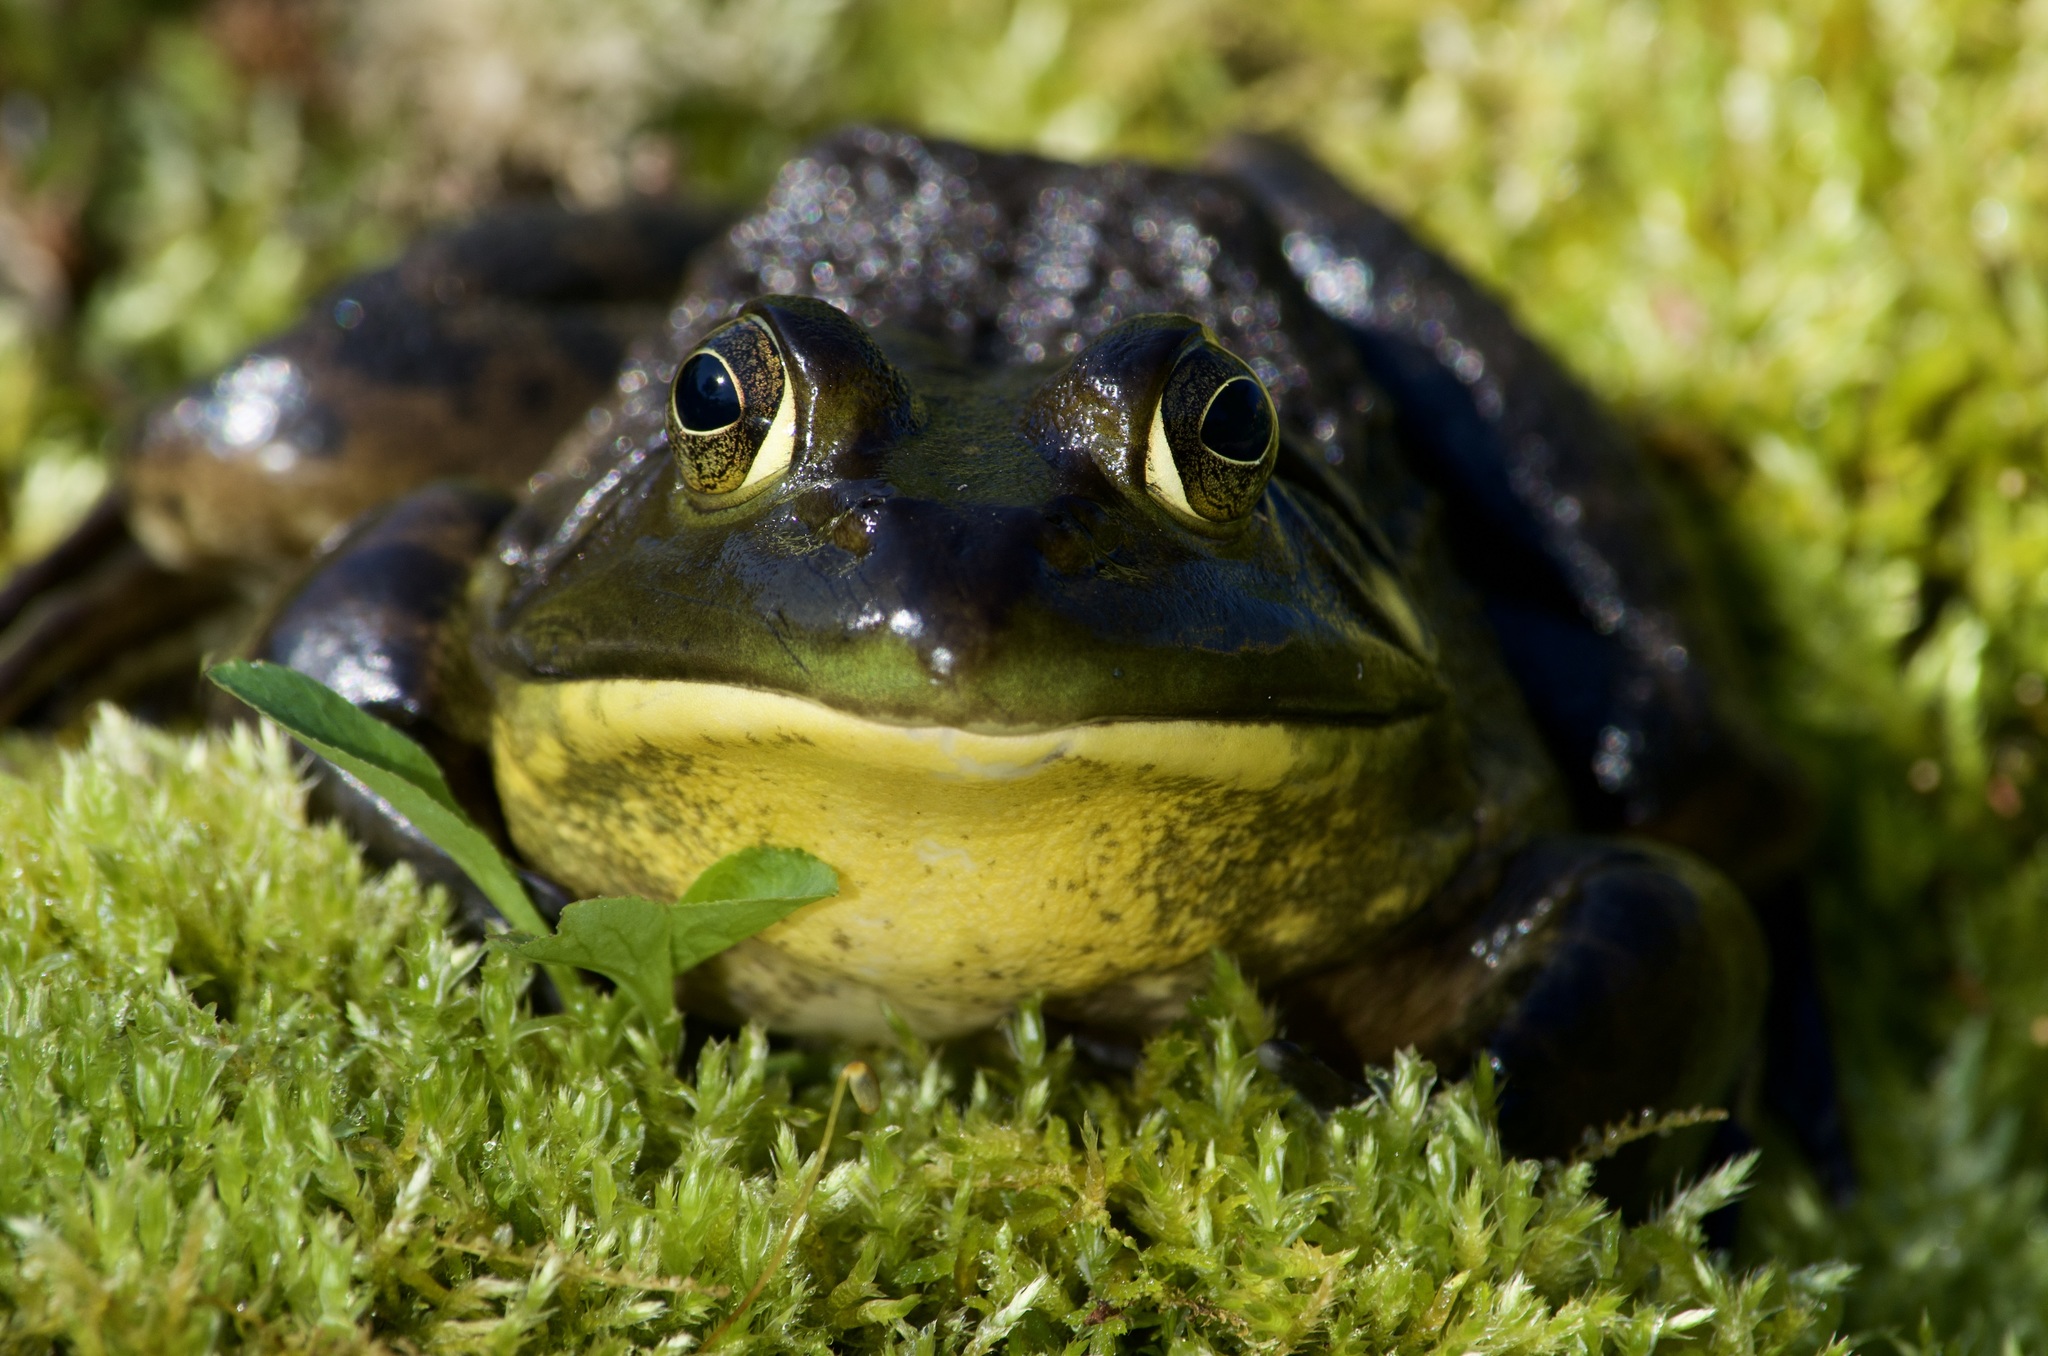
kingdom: Animalia
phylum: Chordata
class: Amphibia
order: Anura
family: Ranidae
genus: Lithobates
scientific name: Lithobates catesbeianus
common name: American bullfrog
